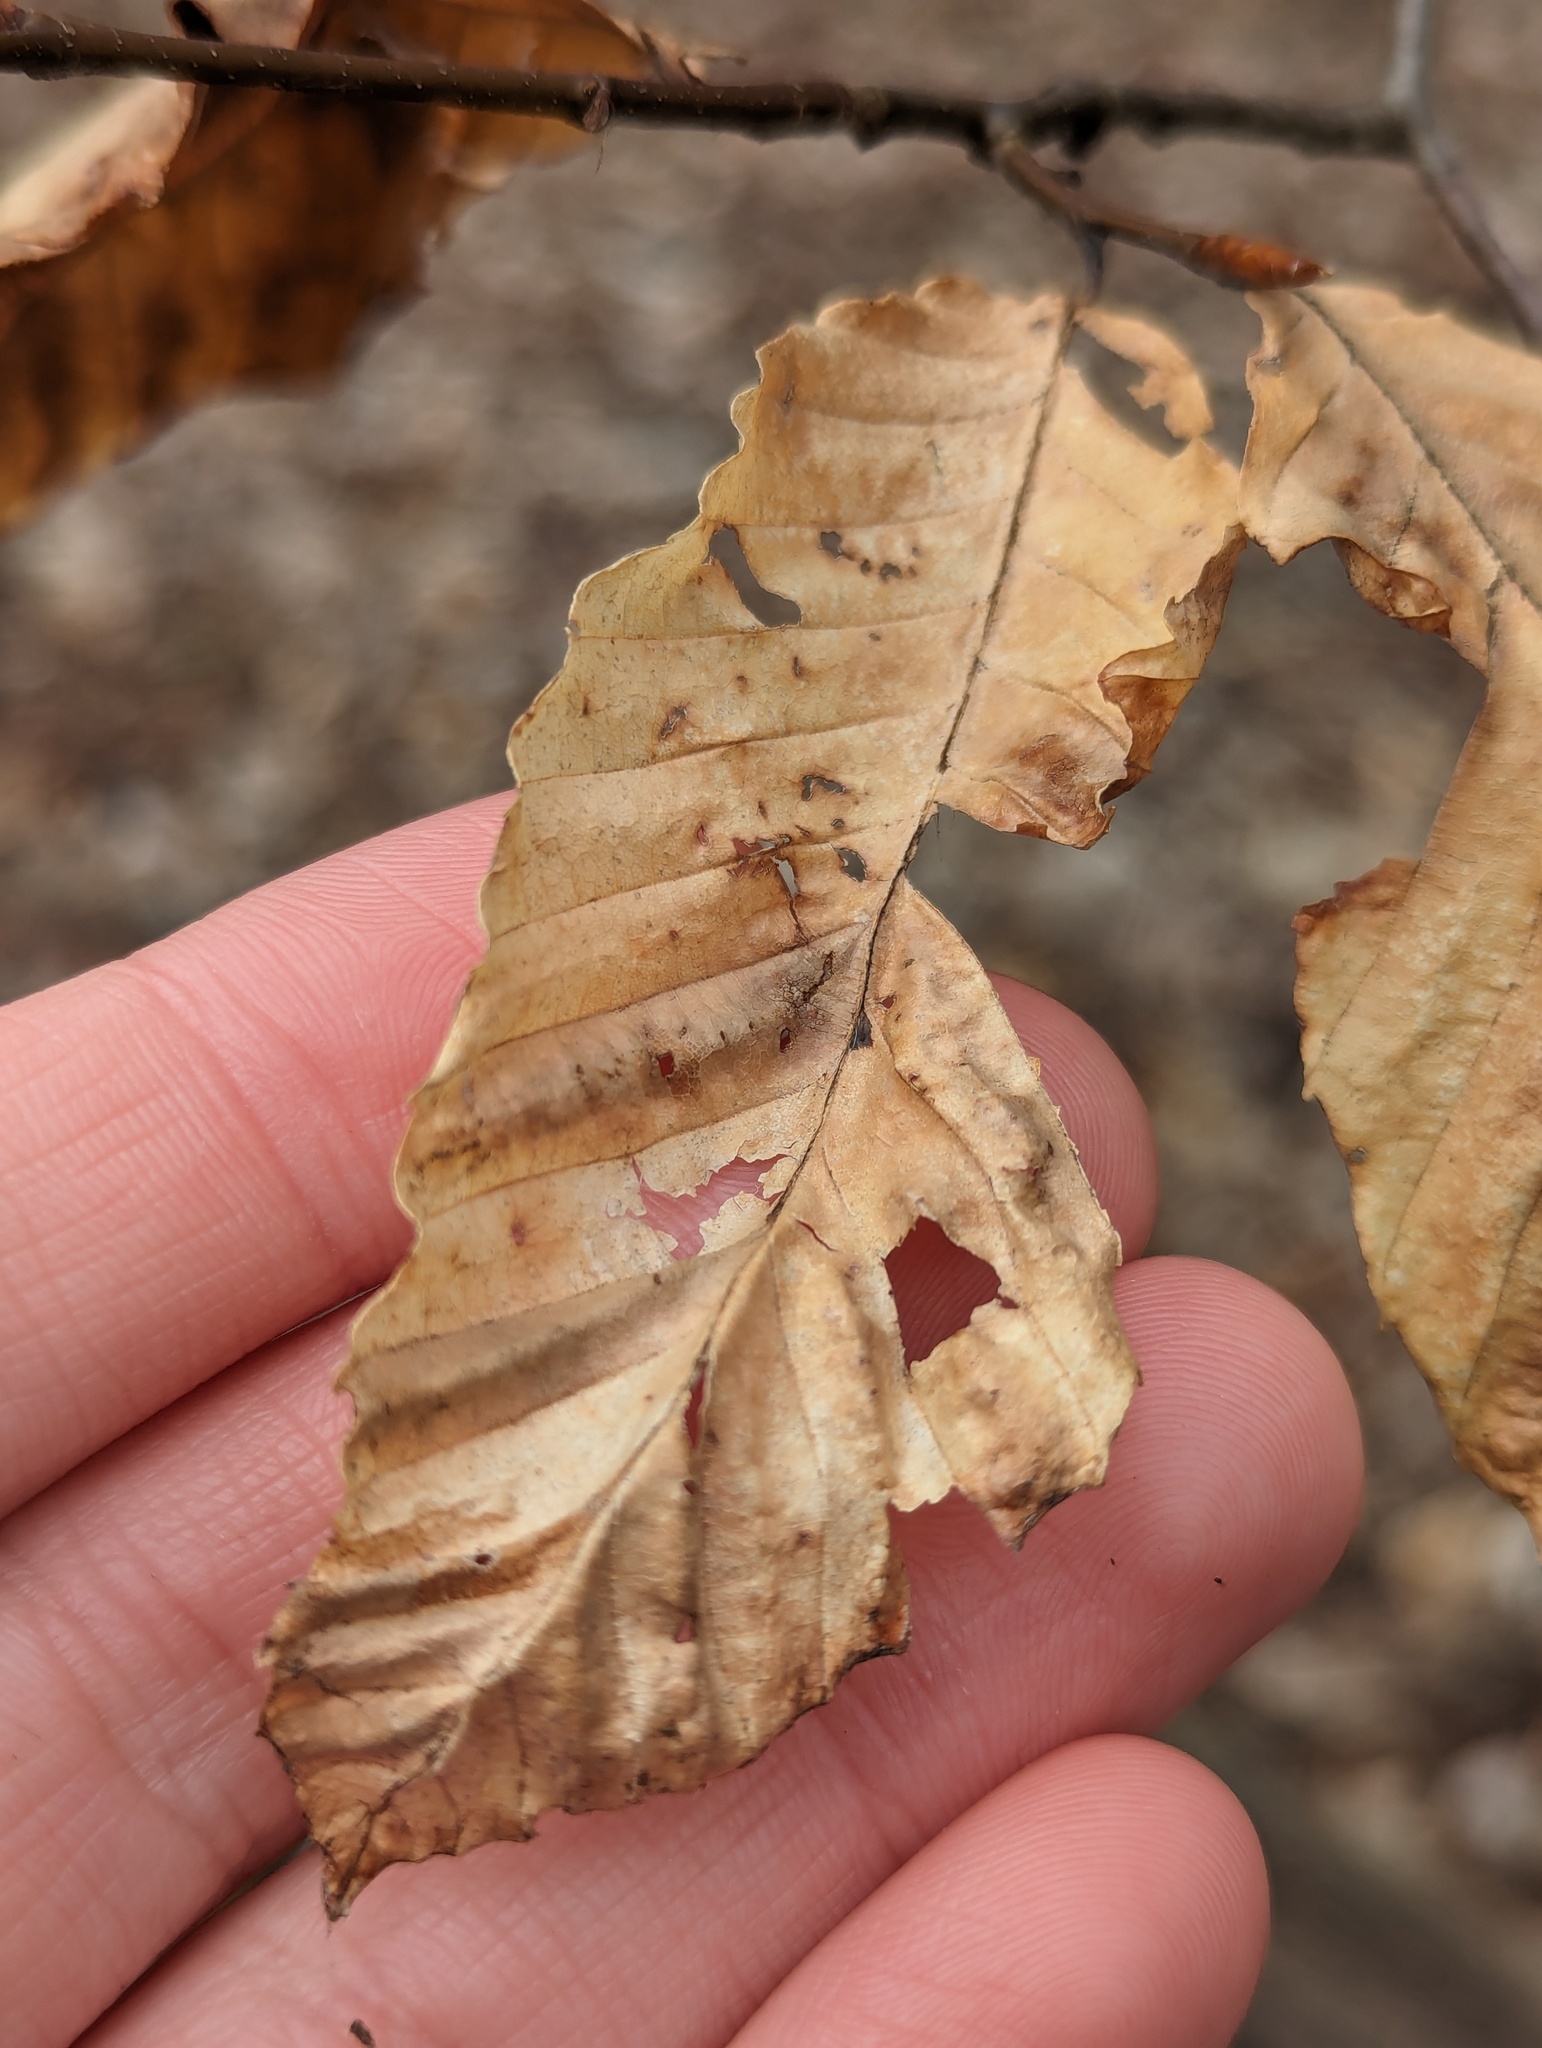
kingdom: Plantae
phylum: Tracheophyta
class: Magnoliopsida
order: Fagales
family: Fagaceae
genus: Fagus
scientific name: Fagus grandifolia
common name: American beech
